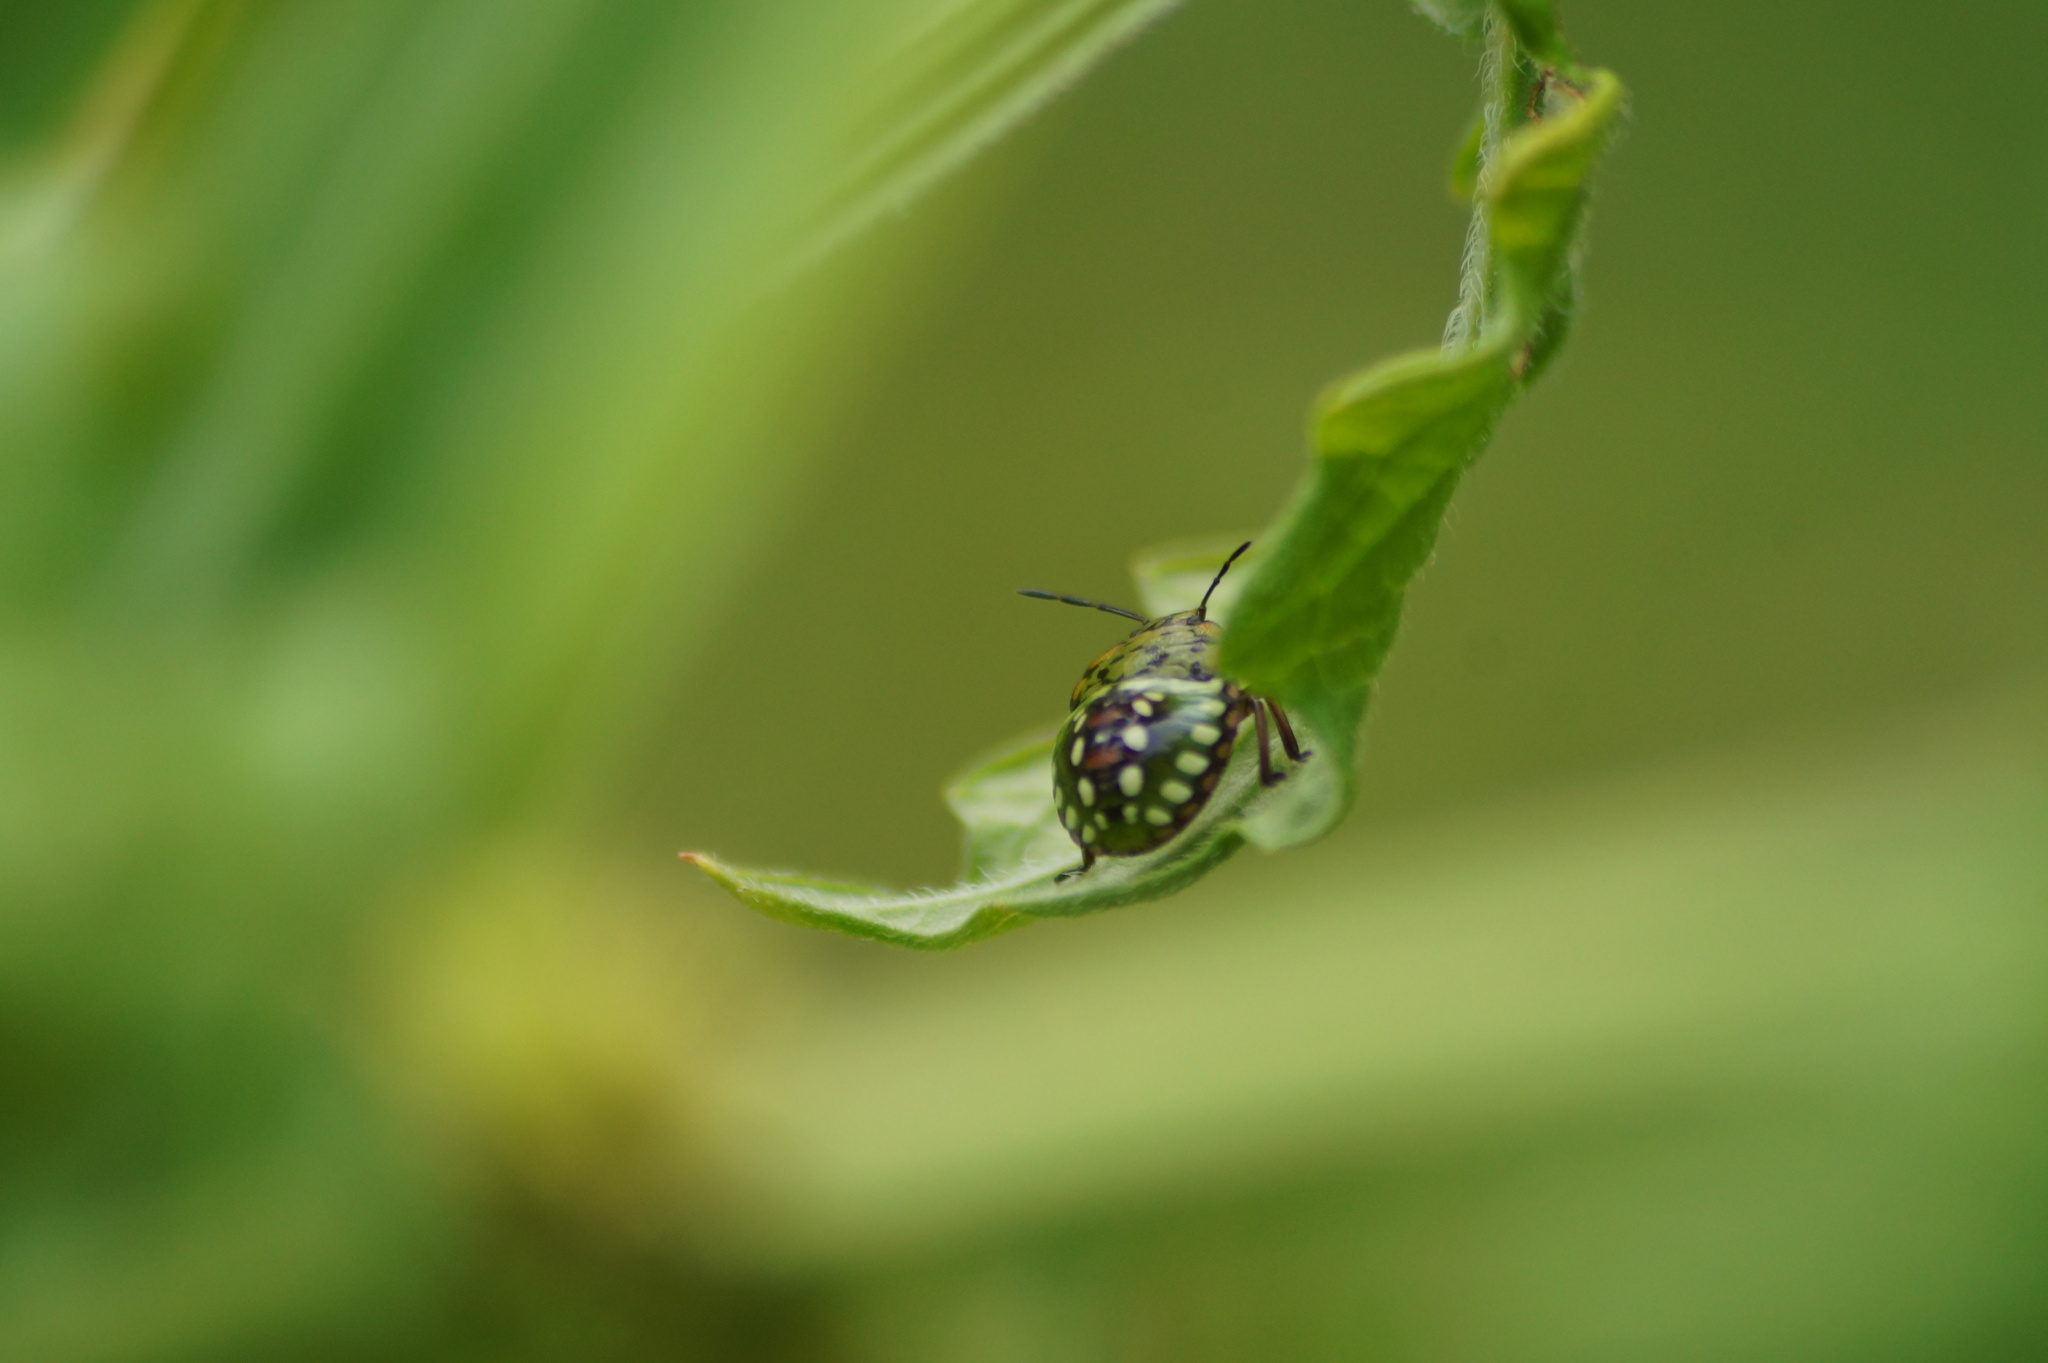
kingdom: Animalia
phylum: Arthropoda
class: Insecta
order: Hemiptera
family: Pentatomidae
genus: Nezara
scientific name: Nezara viridula
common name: Southern green stink bug
